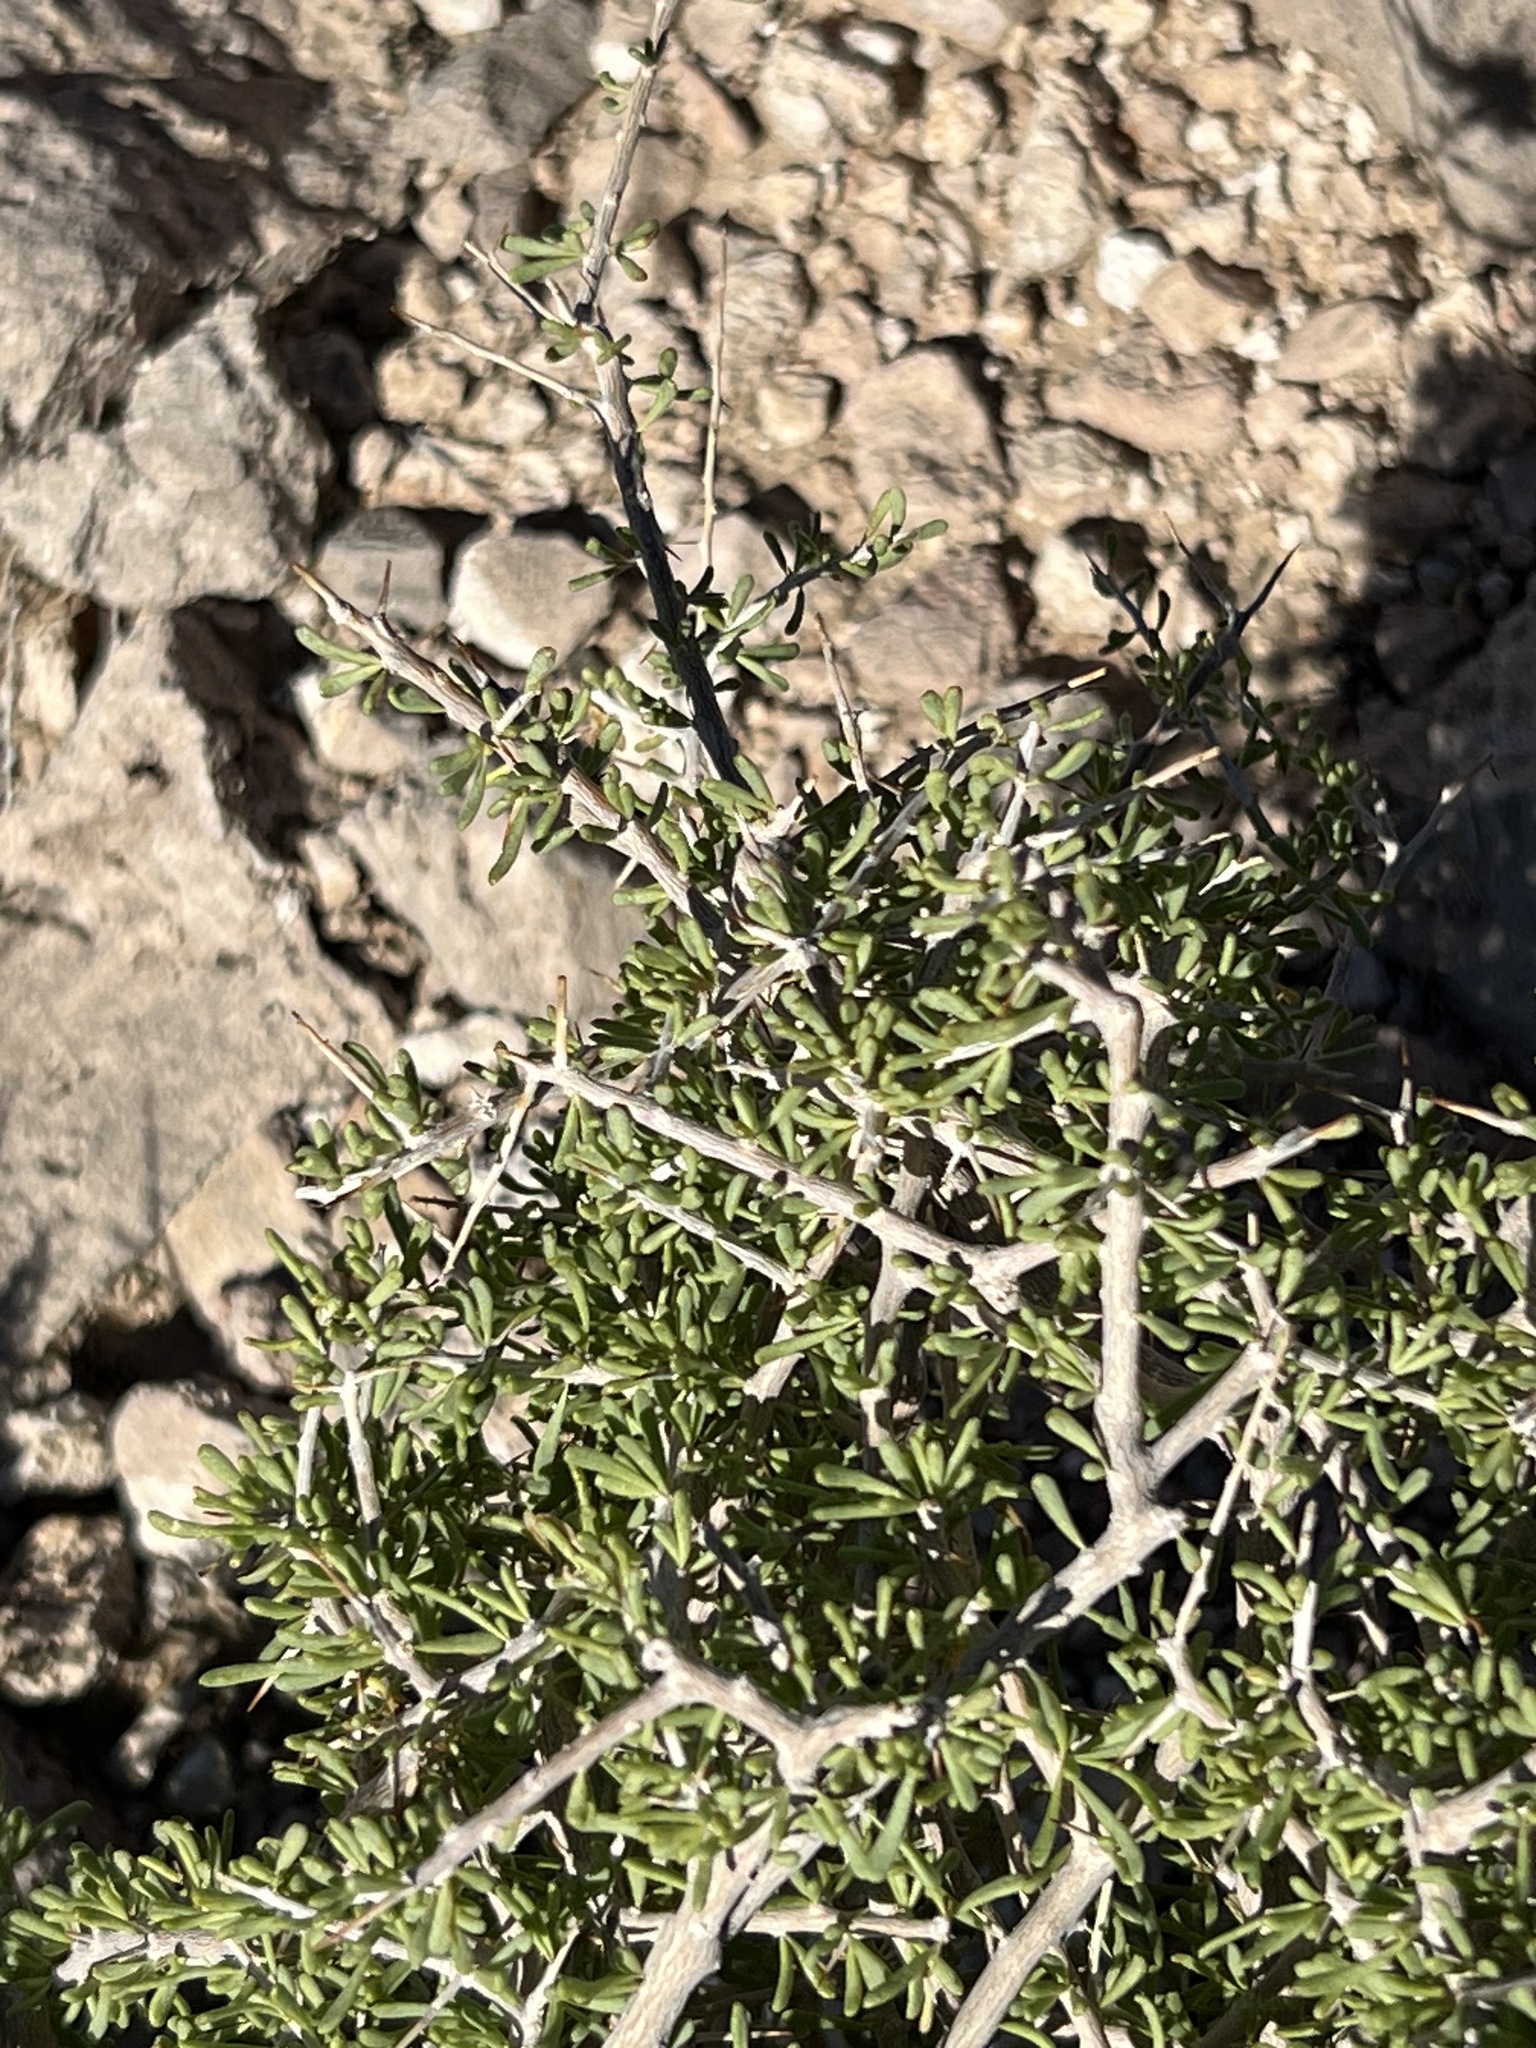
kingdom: Plantae
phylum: Tracheophyta
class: Magnoliopsida
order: Solanales
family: Solanaceae
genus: Lycium
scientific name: Lycium andersonii
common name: Water-jacket
